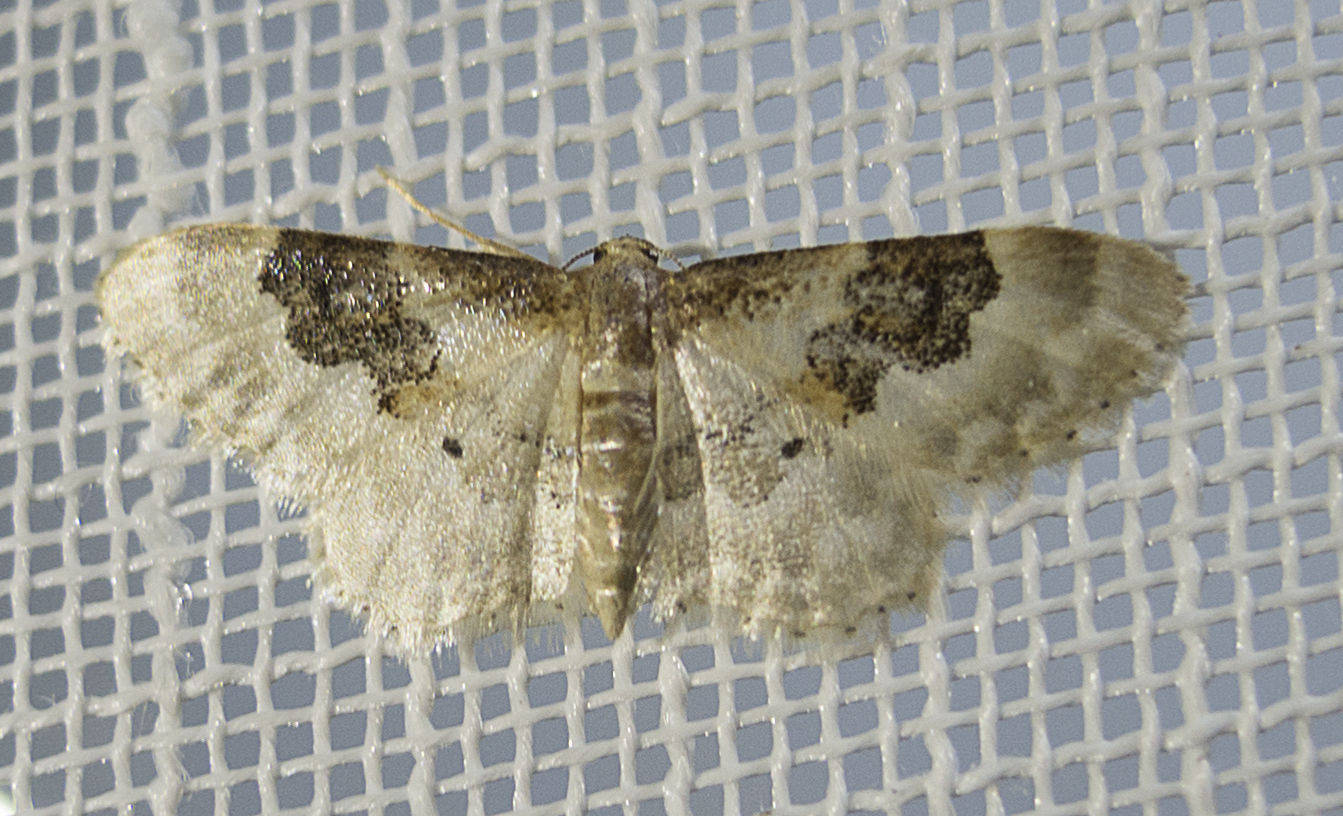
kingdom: Animalia
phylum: Arthropoda
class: Insecta
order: Lepidoptera
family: Geometridae
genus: Idaea
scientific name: Idaea rusticata
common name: Least carpet
